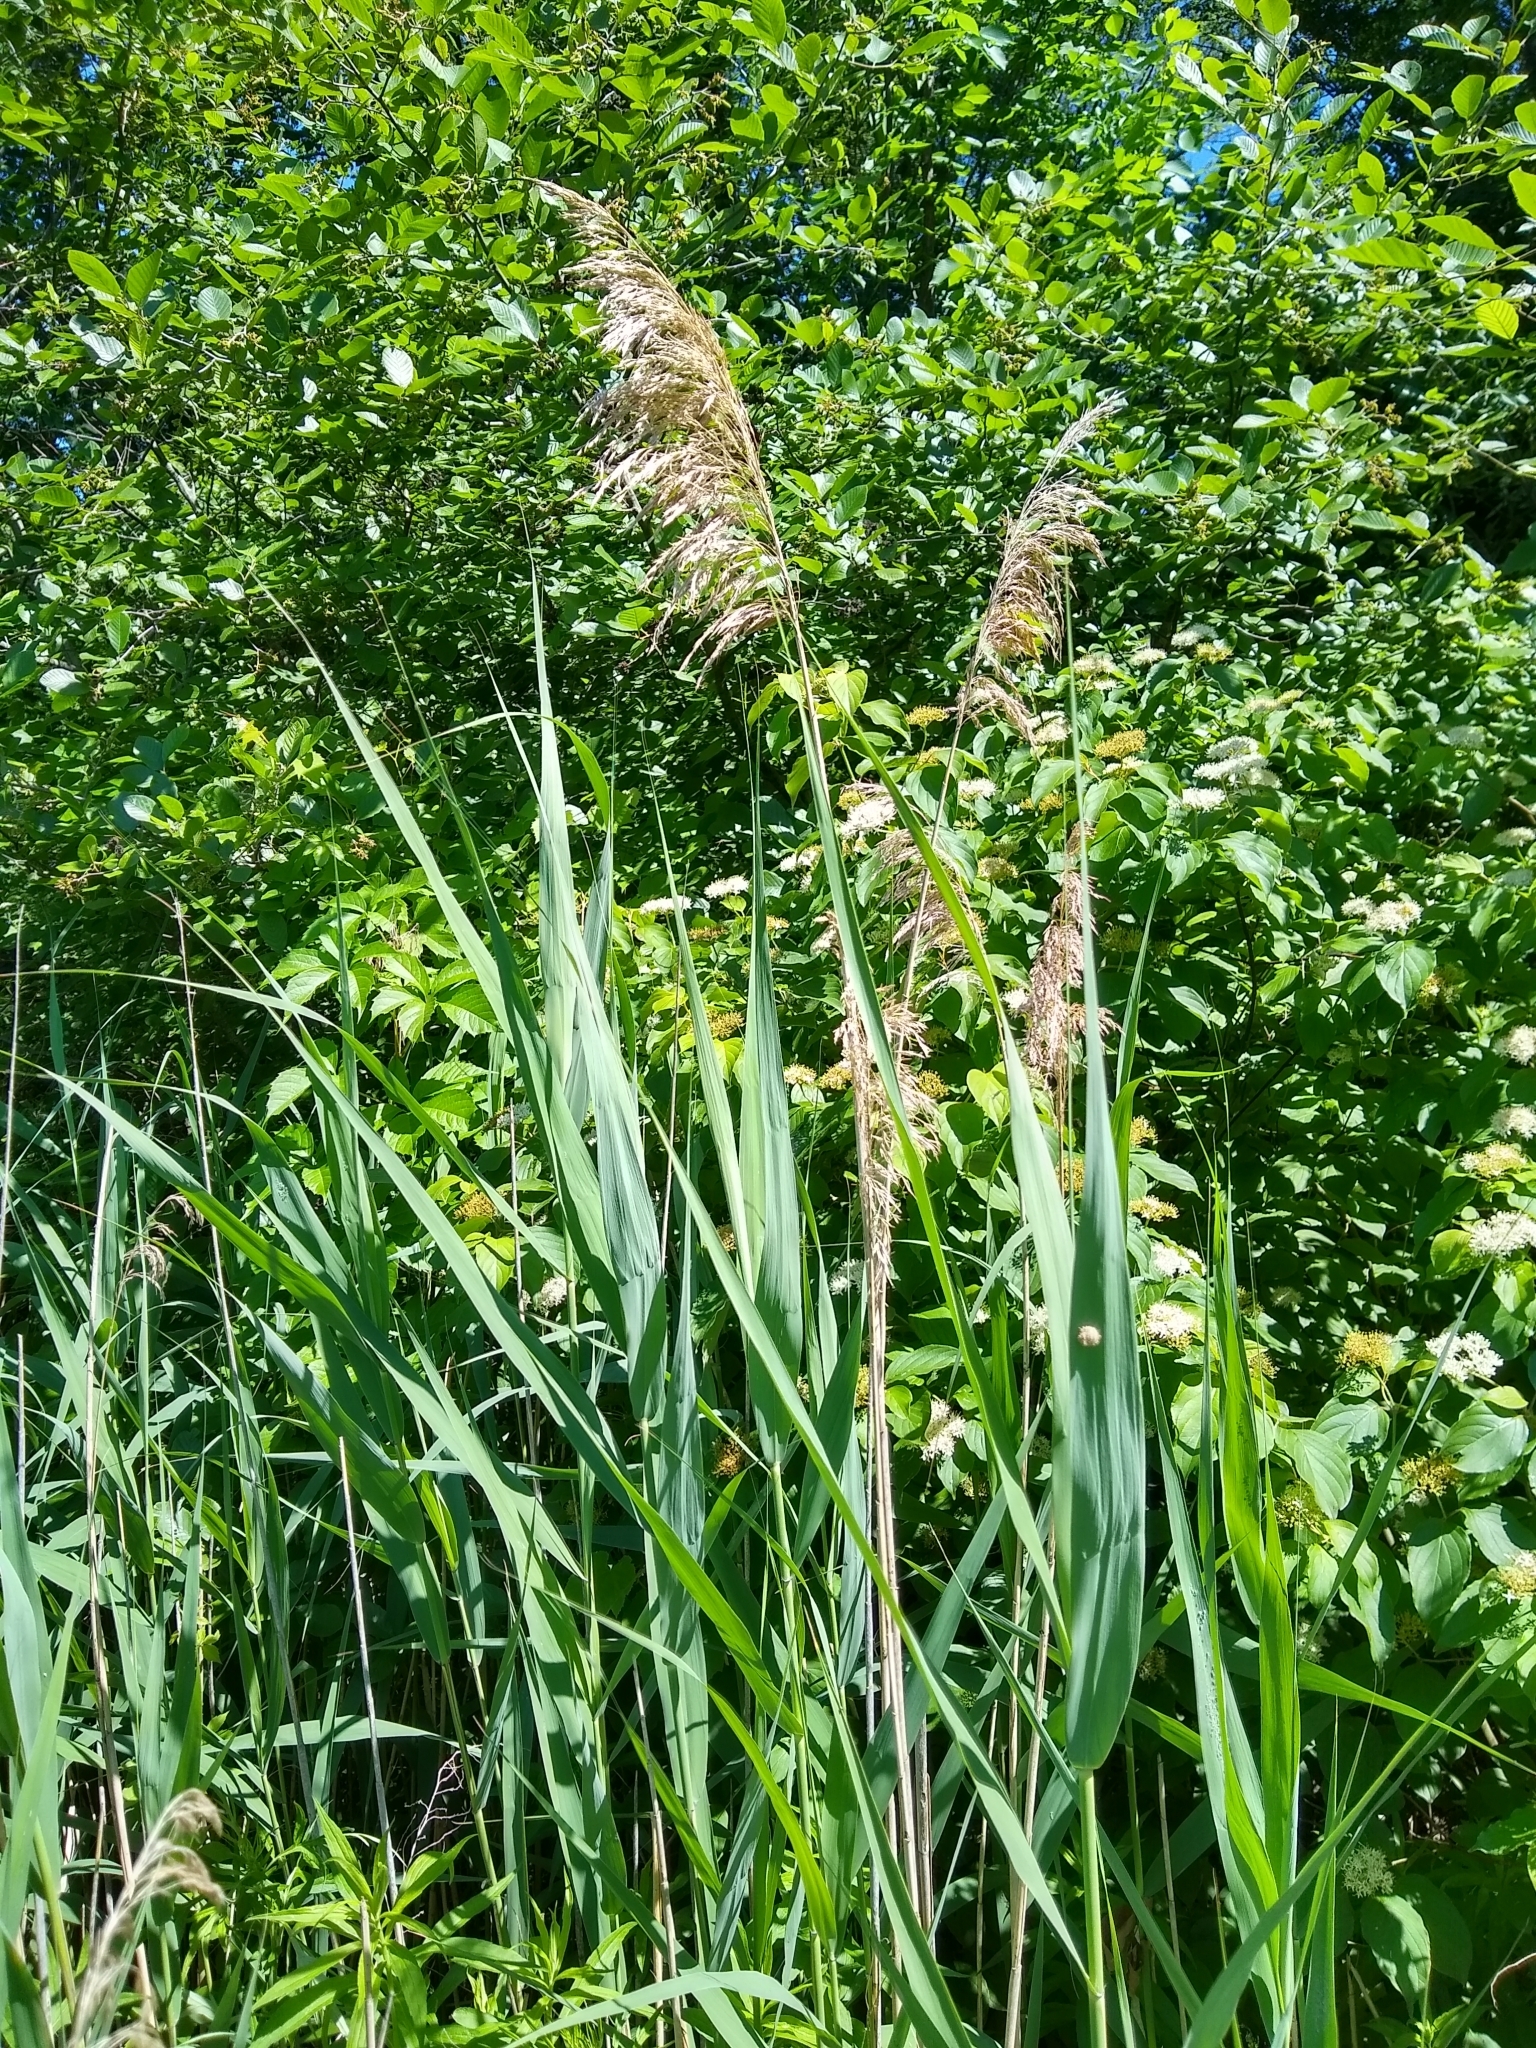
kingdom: Plantae
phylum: Tracheophyta
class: Liliopsida
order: Poales
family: Poaceae
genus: Phragmites
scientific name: Phragmites australis
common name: Common reed
